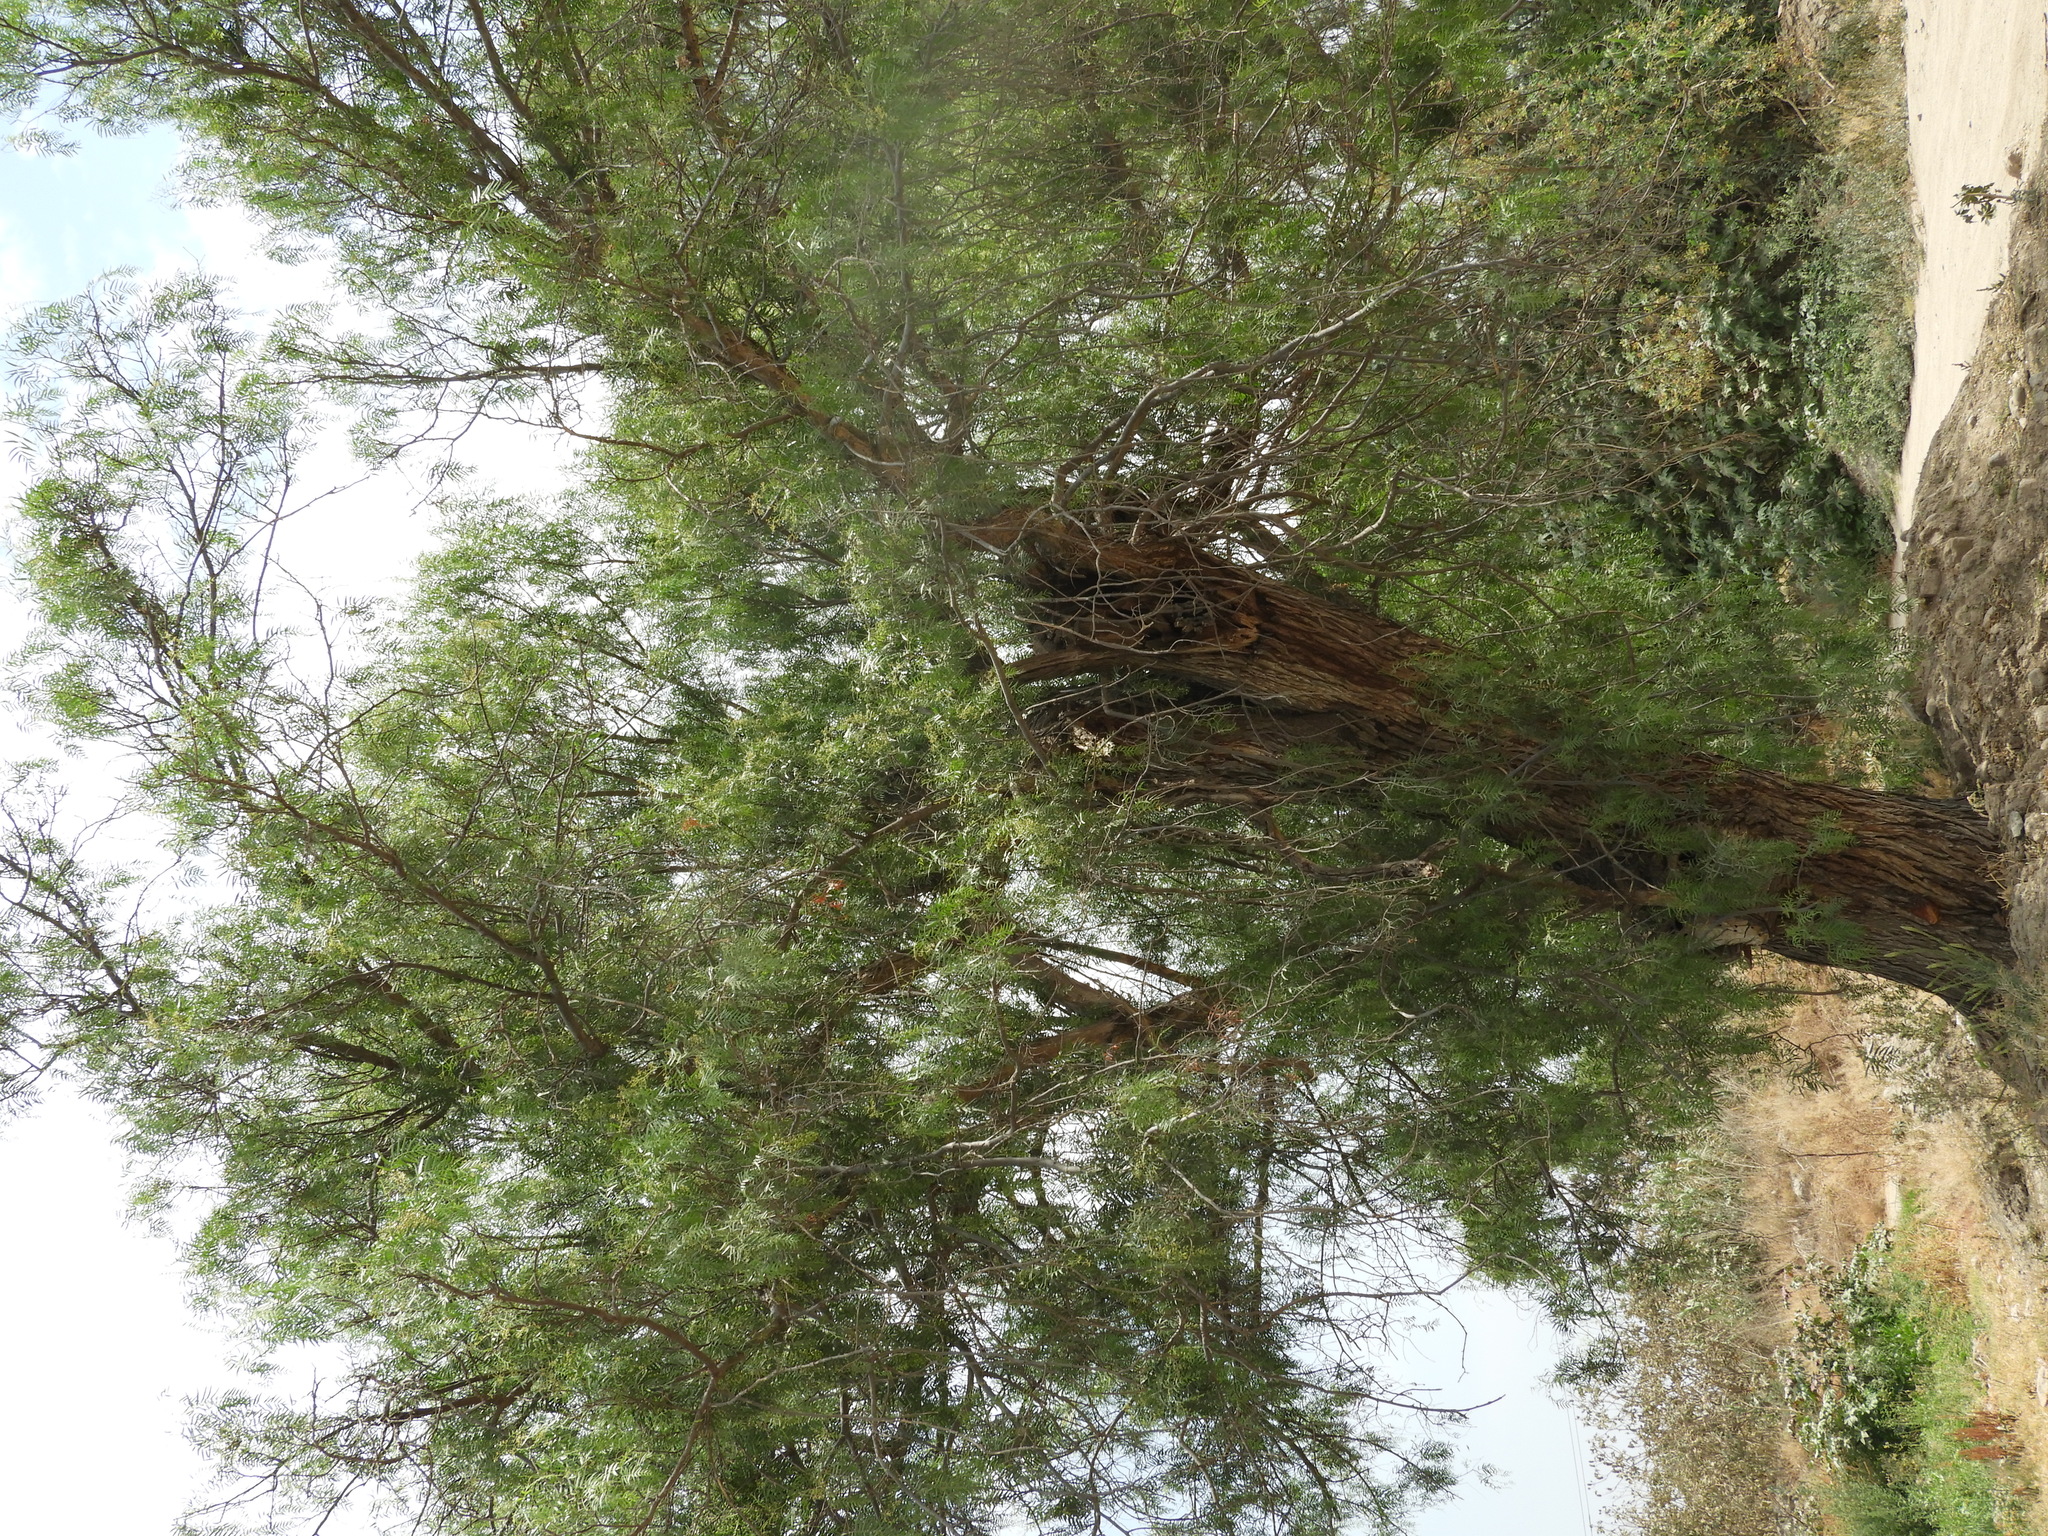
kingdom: Plantae
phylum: Tracheophyta
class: Pinopsida
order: Pinales
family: Cupressaceae
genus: Taxodium
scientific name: Taxodium mucronatum
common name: Montezume bald cypress
